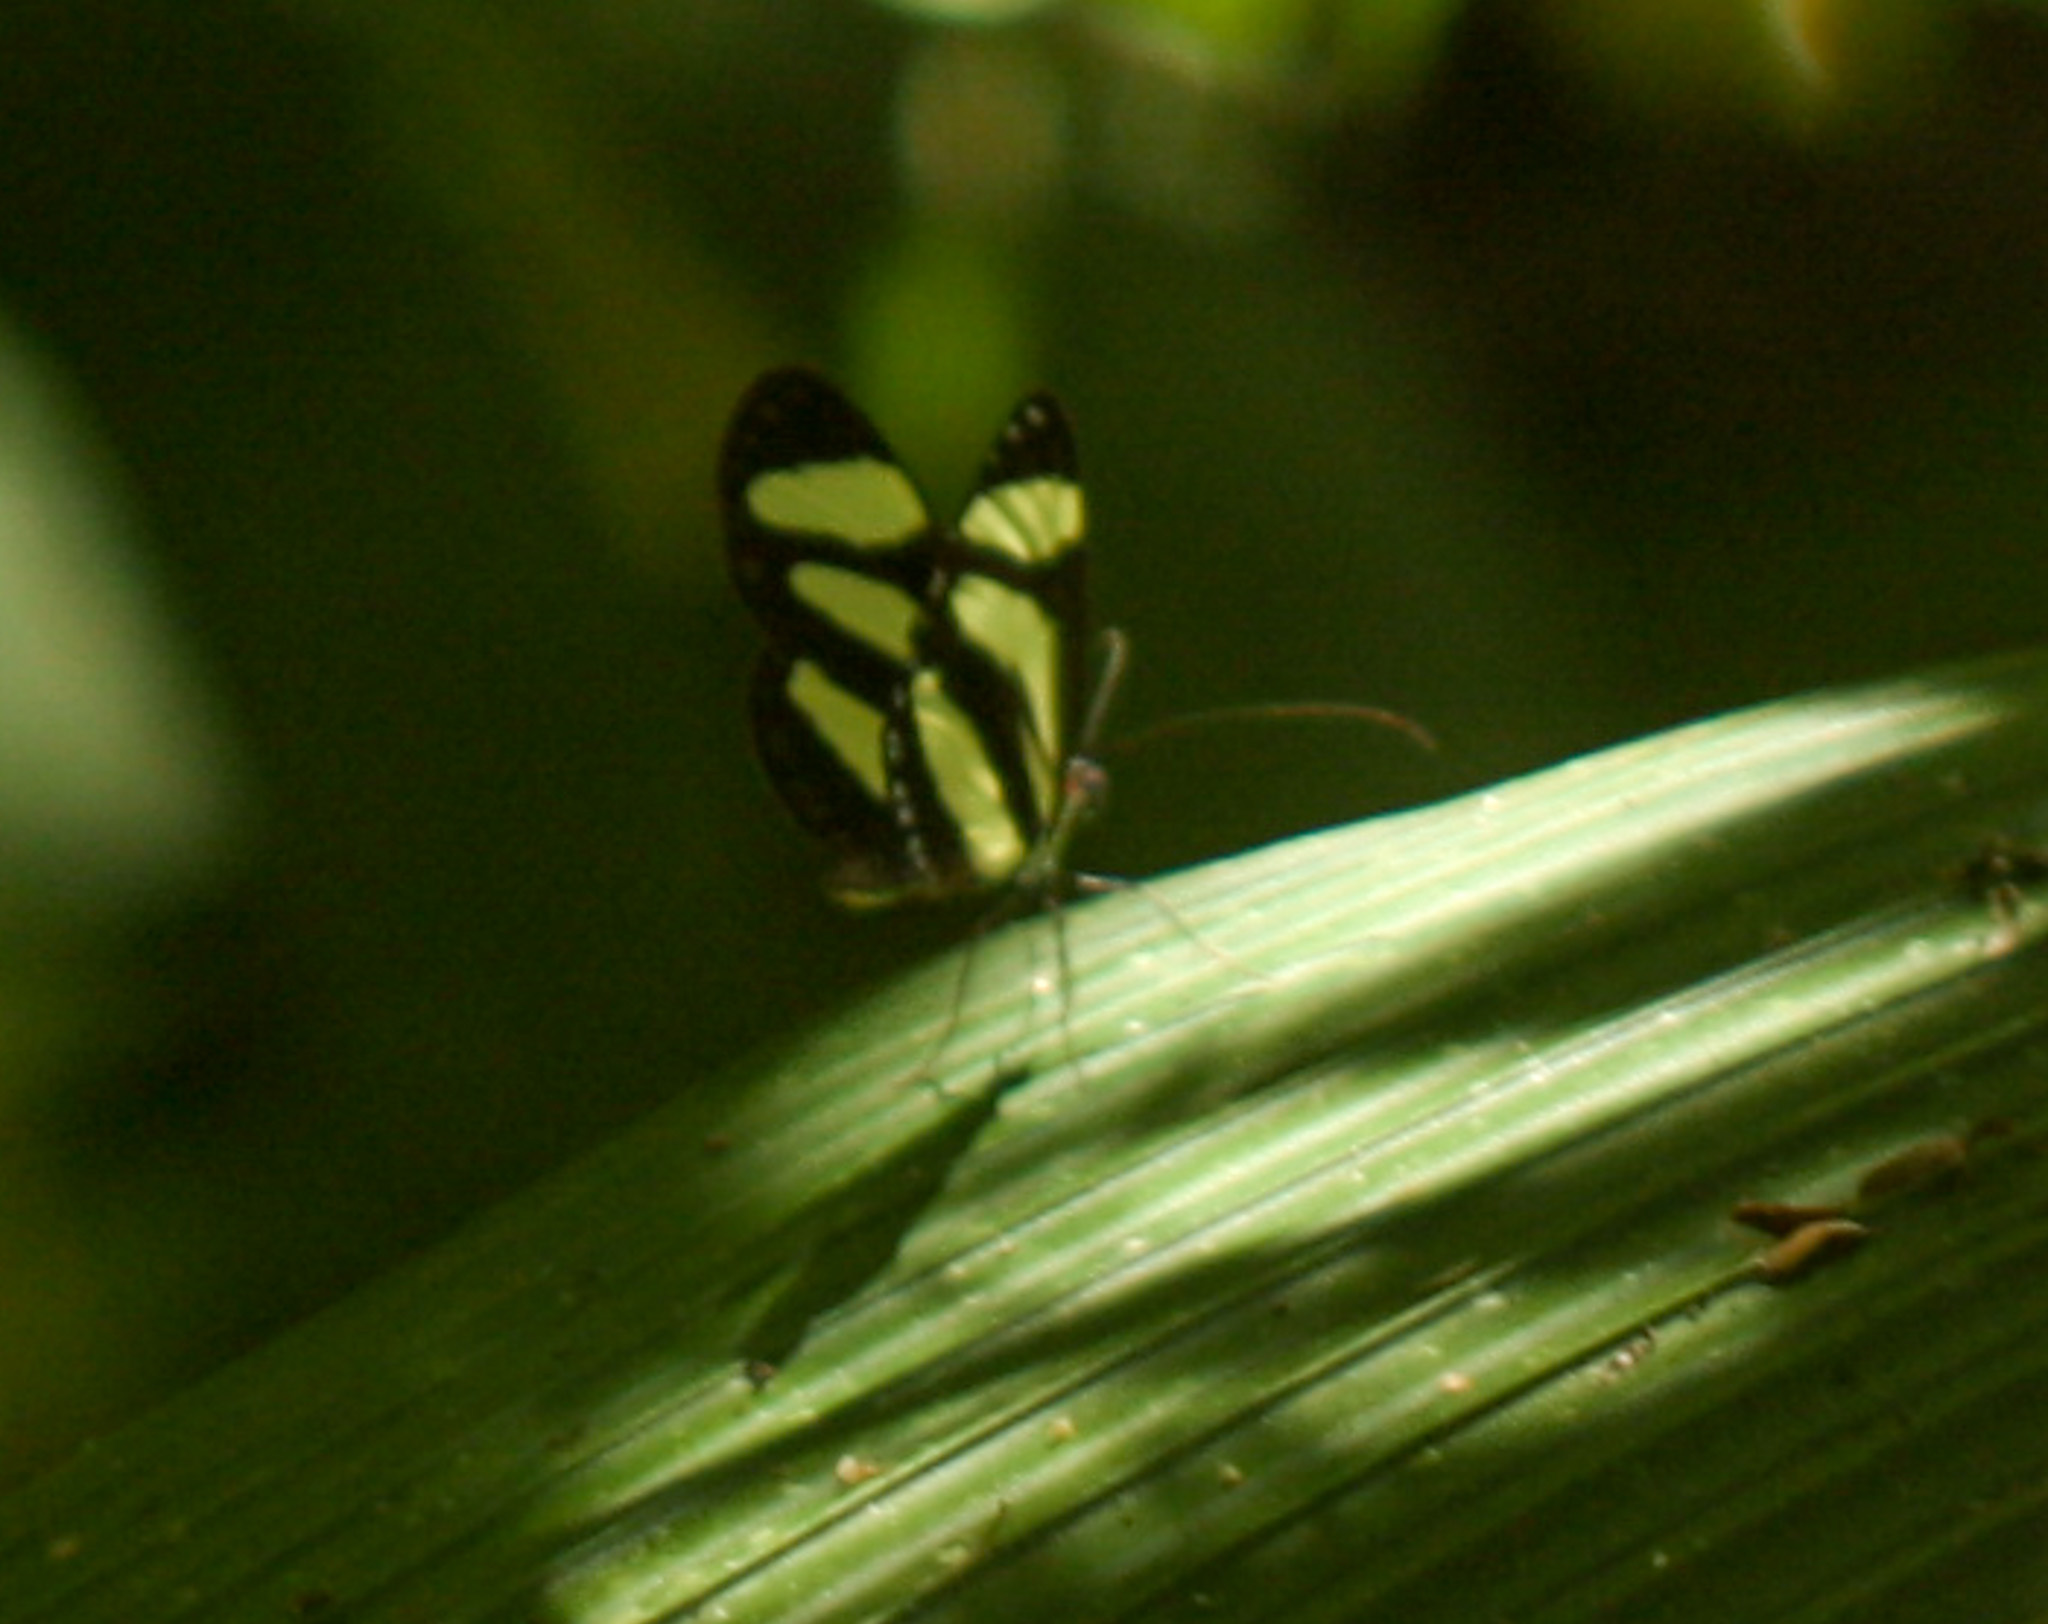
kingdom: Animalia
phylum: Arthropoda
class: Insecta
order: Lepidoptera
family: Nymphalidae
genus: Aeria
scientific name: Aeria eurimedia
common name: Banded tigerwing
